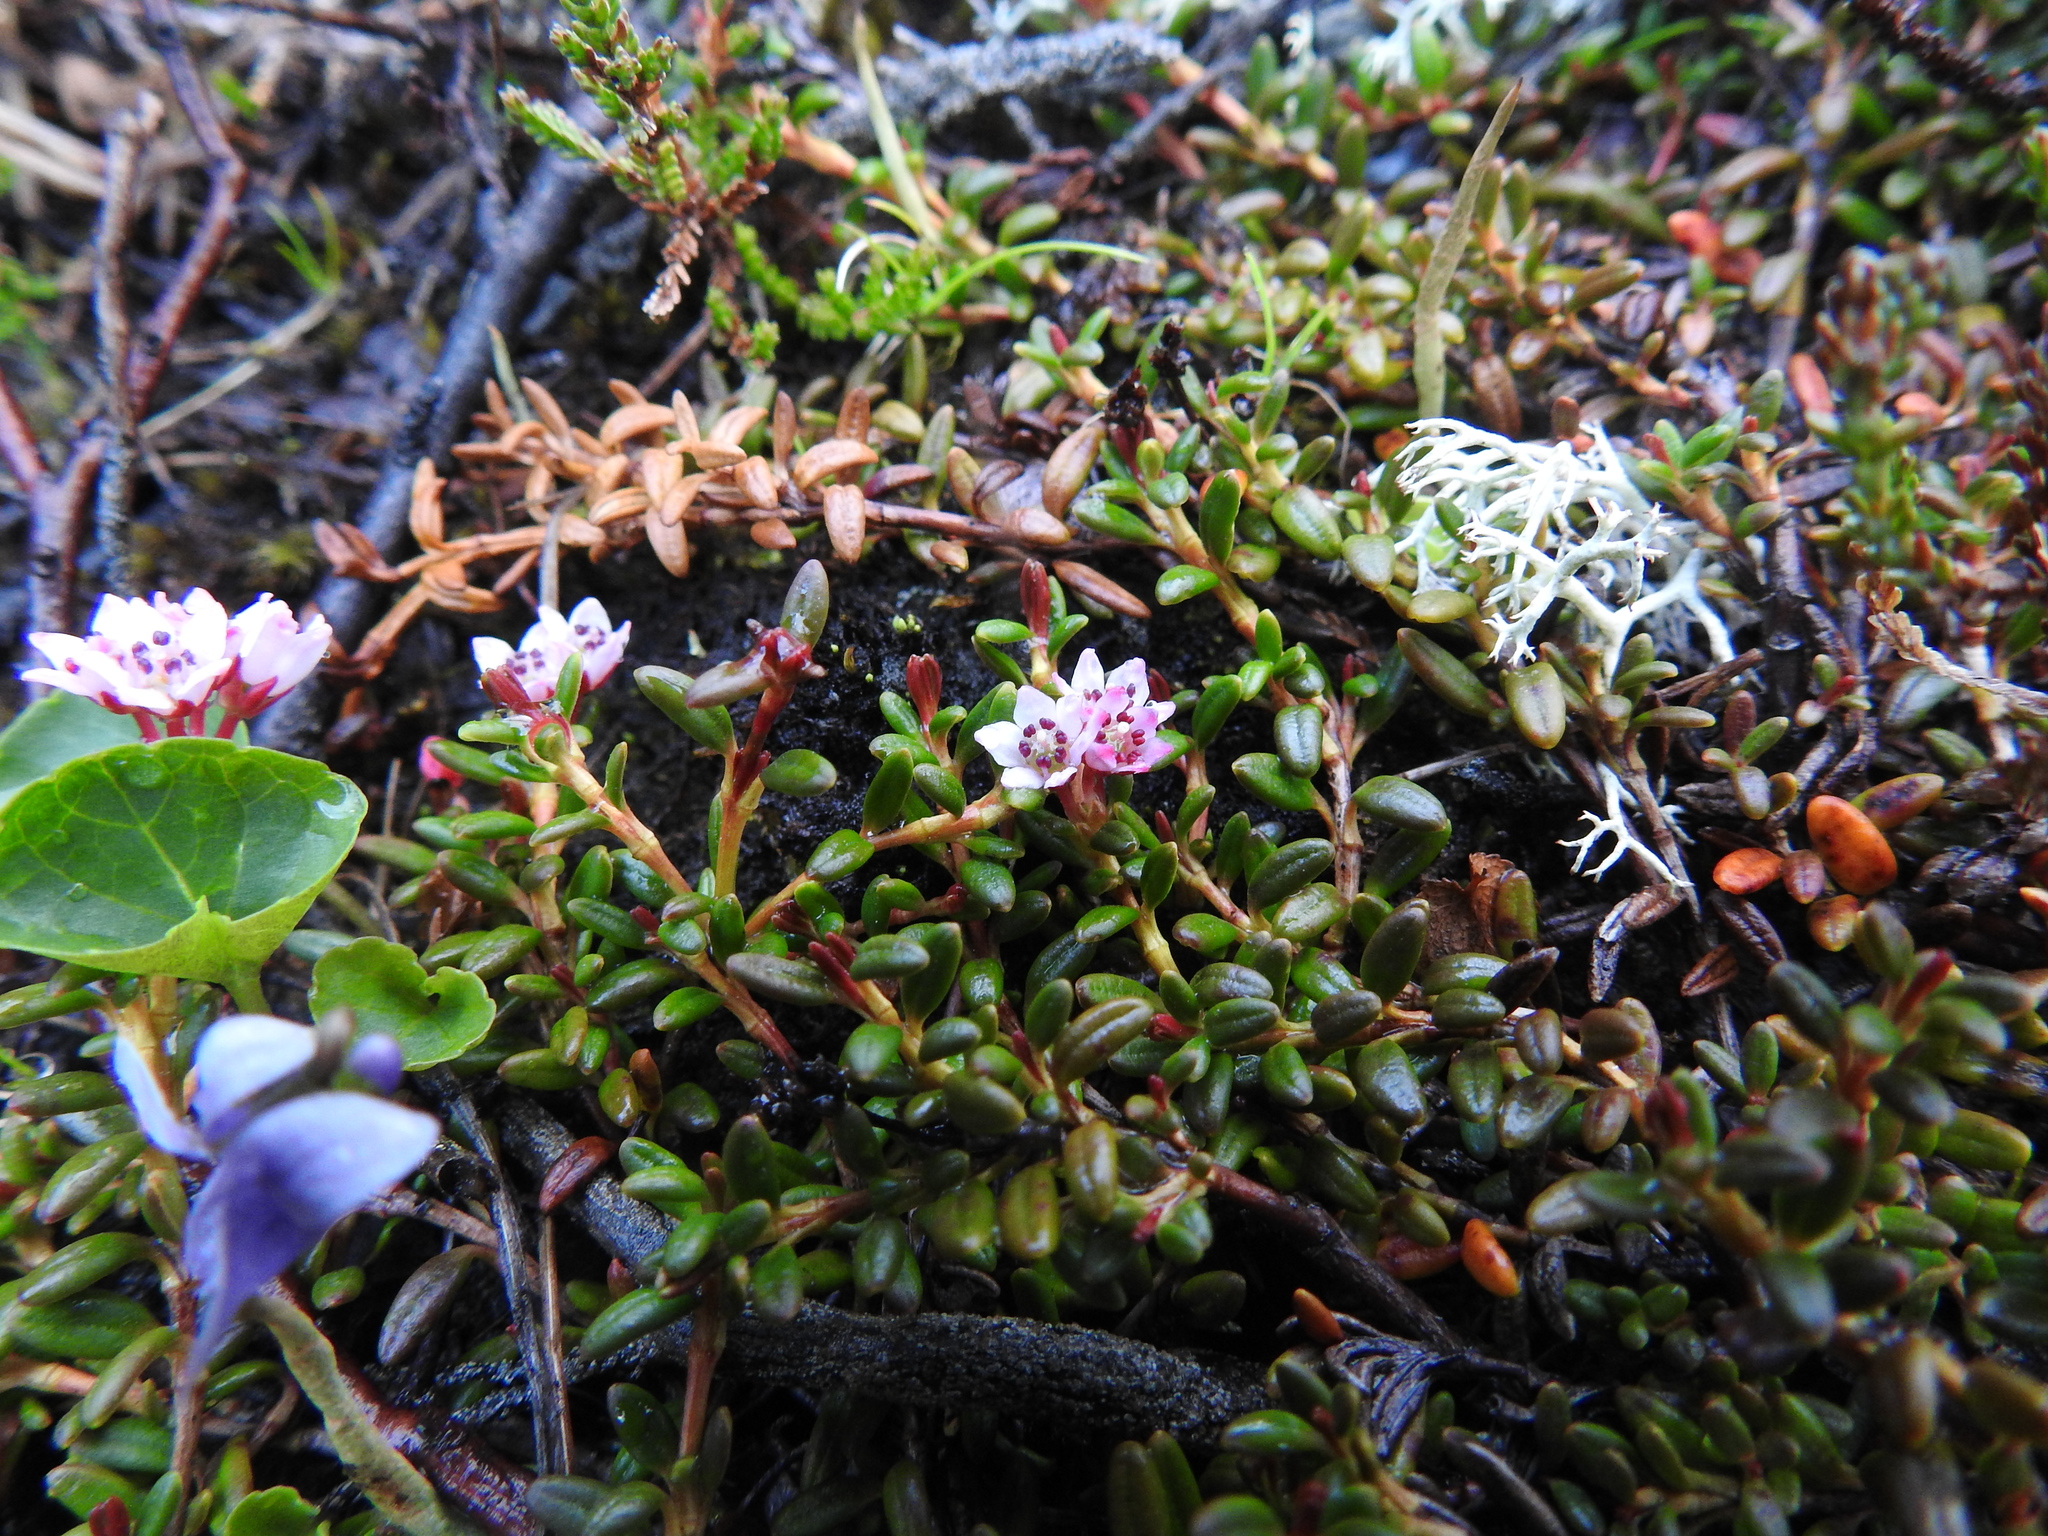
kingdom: Plantae
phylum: Tracheophyta
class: Magnoliopsida
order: Ericales
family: Ericaceae
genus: Kalmia
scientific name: Kalmia procumbens
